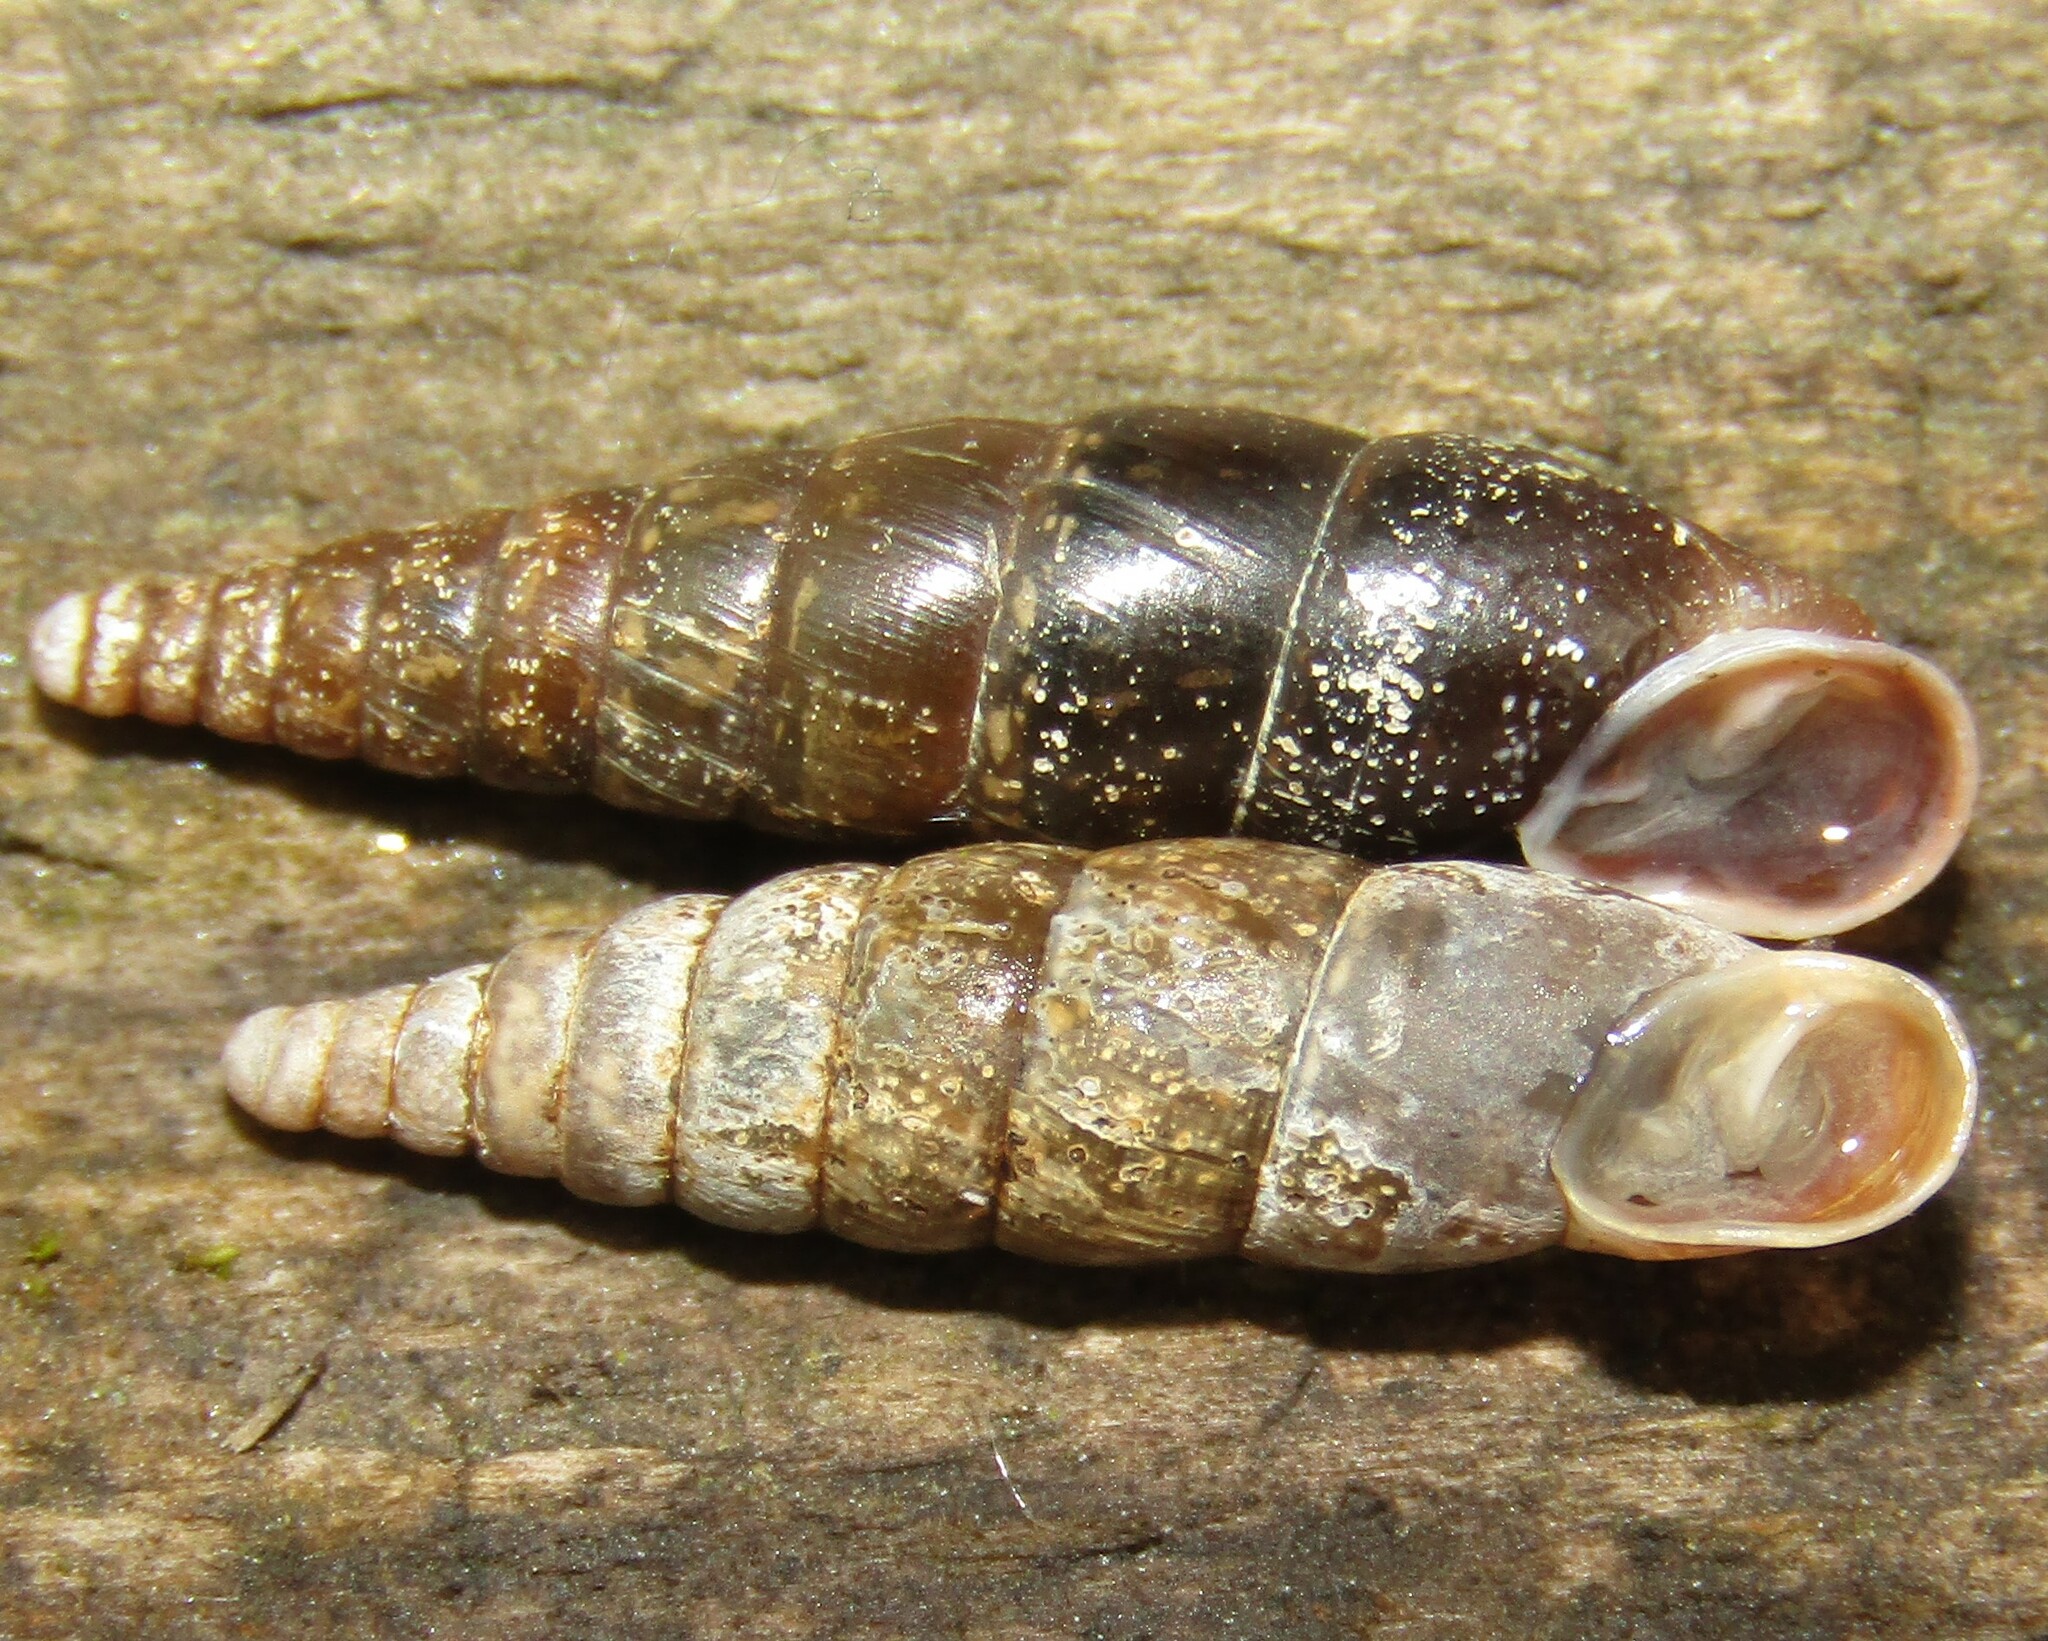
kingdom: Animalia
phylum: Mollusca
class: Gastropoda
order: Stylommatophora
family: Clausiliidae
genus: Cochlodina
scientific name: Cochlodina laminata
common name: Plaited door snail
